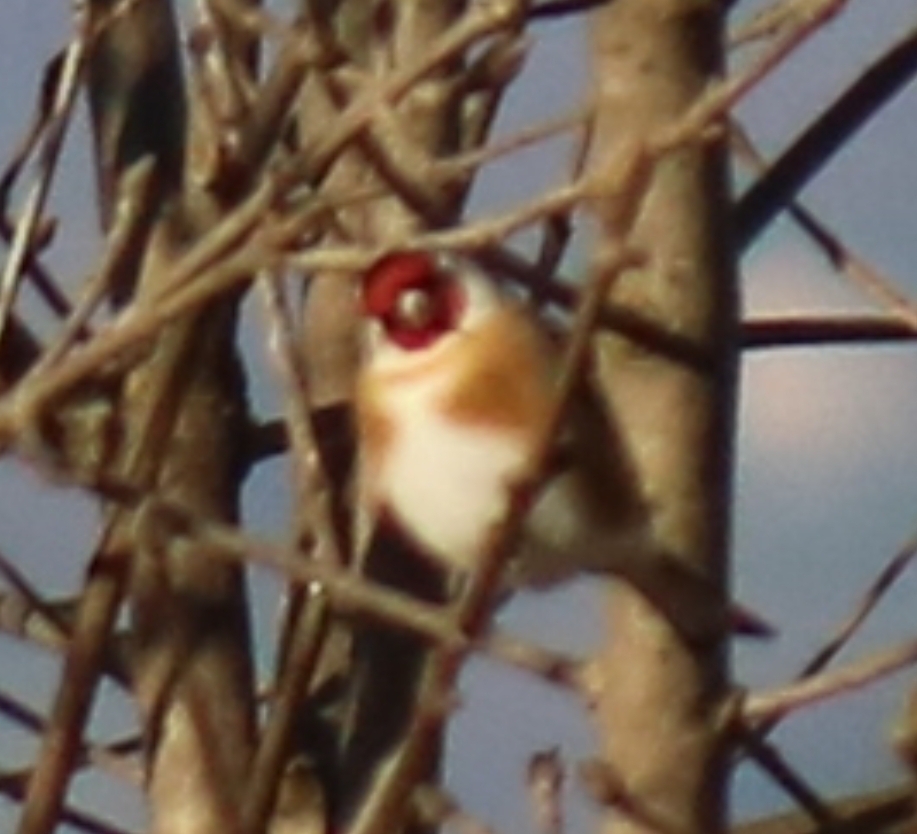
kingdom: Animalia
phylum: Chordata
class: Aves
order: Passeriformes
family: Fringillidae
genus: Carduelis
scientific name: Carduelis carduelis
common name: European goldfinch
